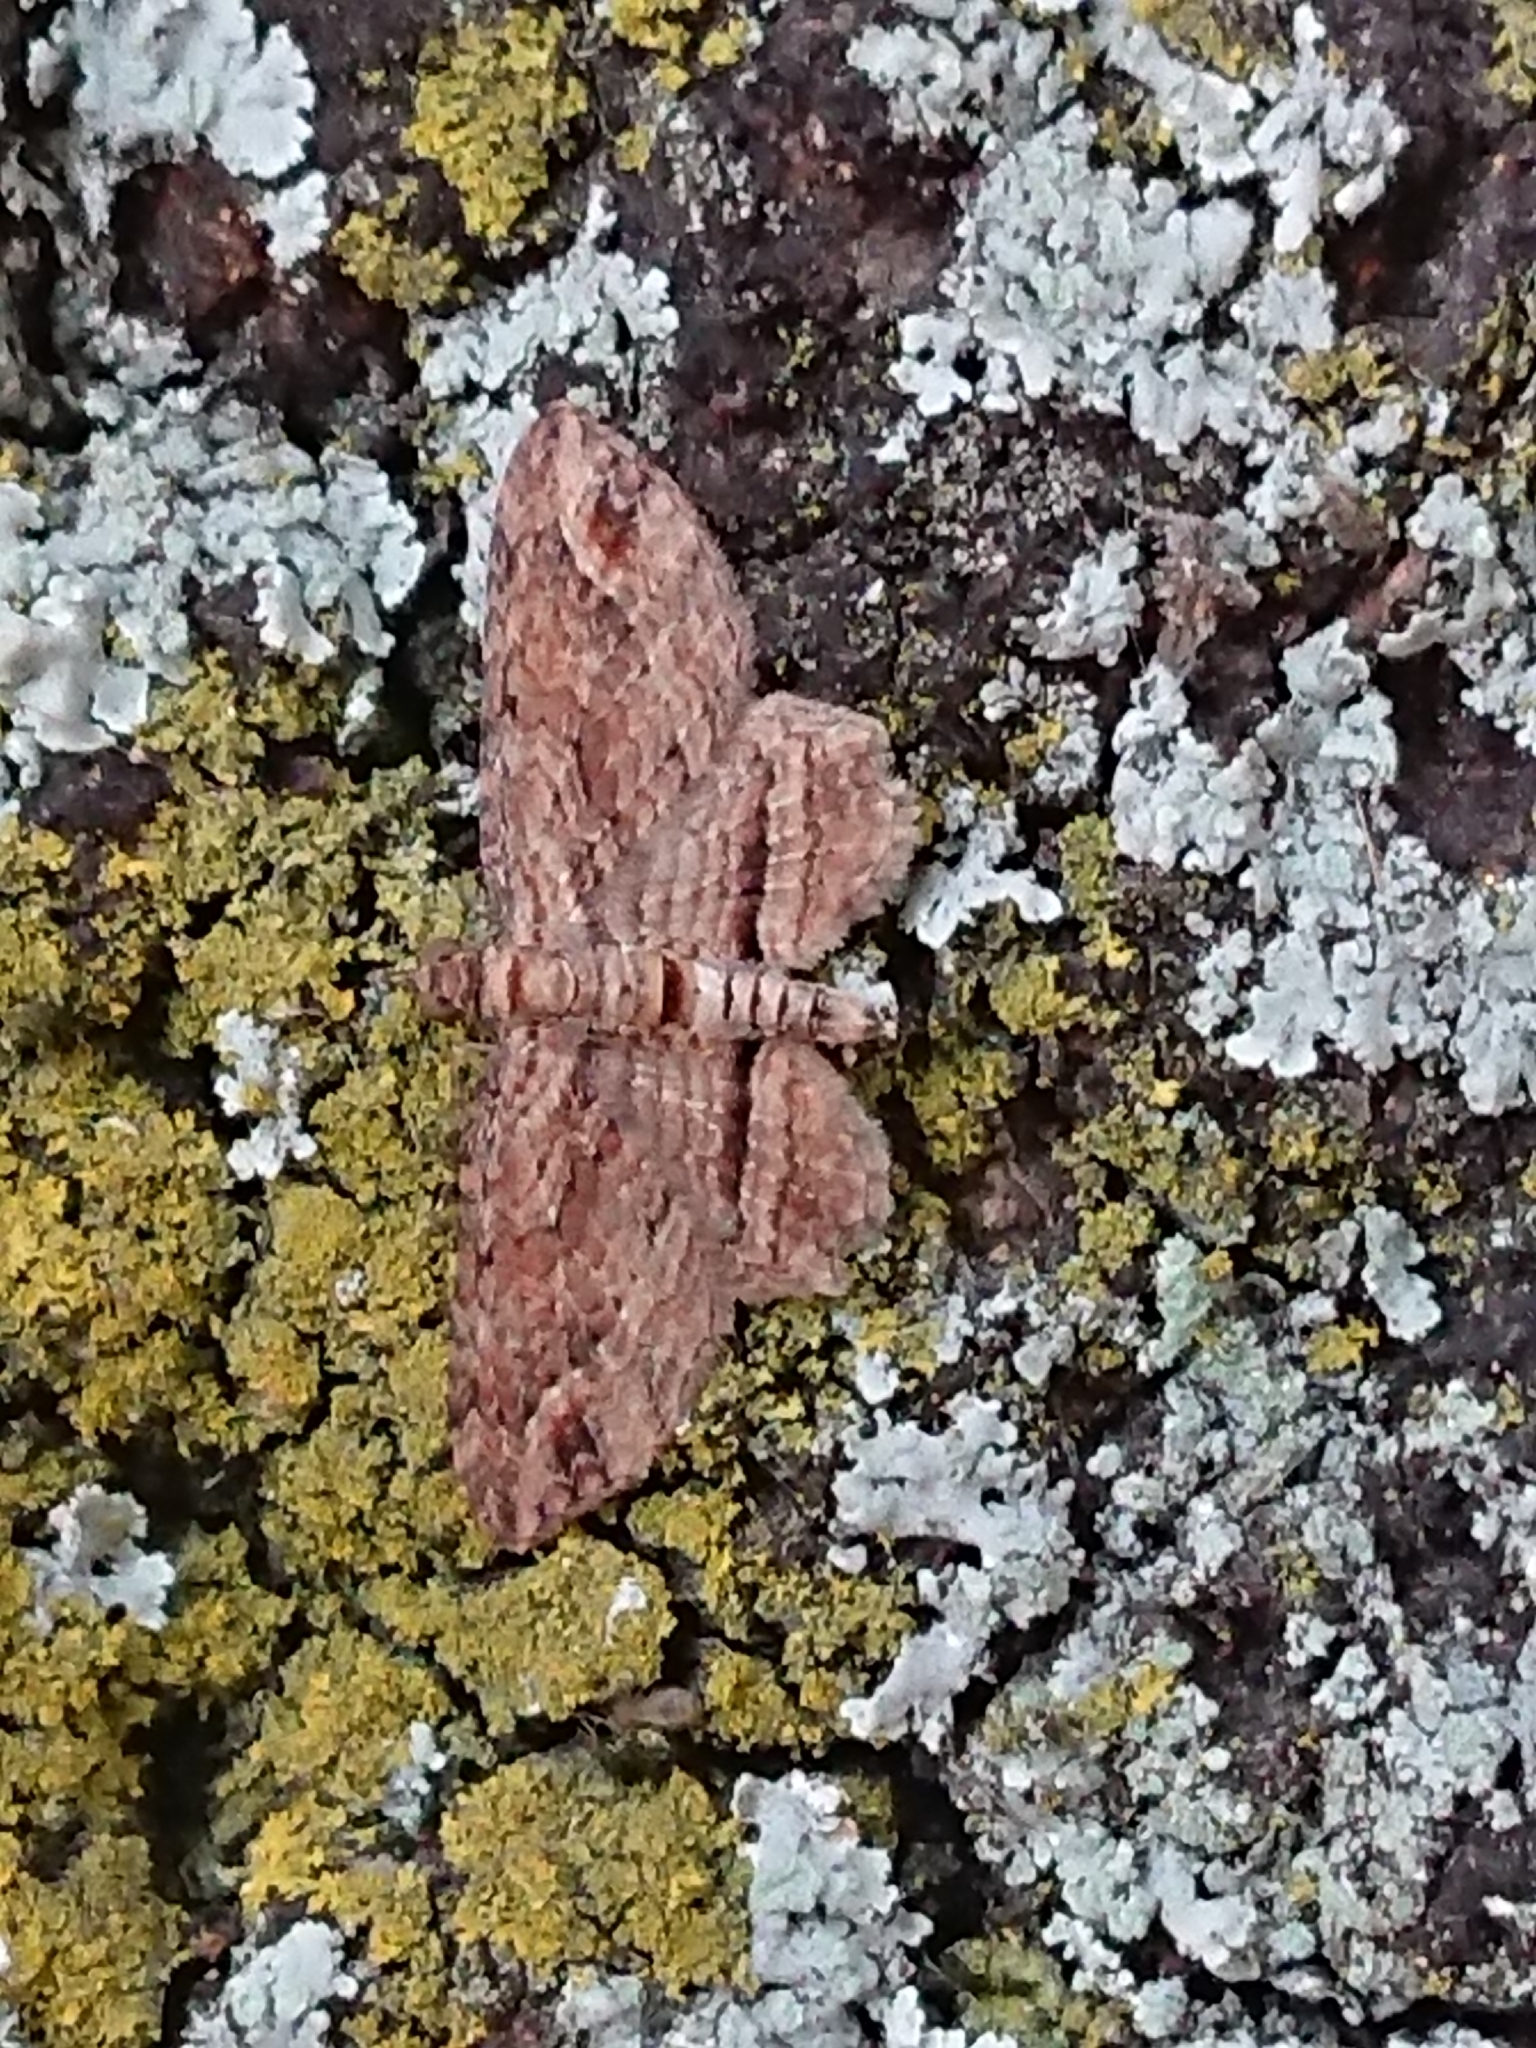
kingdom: Animalia
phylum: Arthropoda
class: Insecta
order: Lepidoptera
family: Geometridae
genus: Chloroclystis
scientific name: Chloroclystis filata
